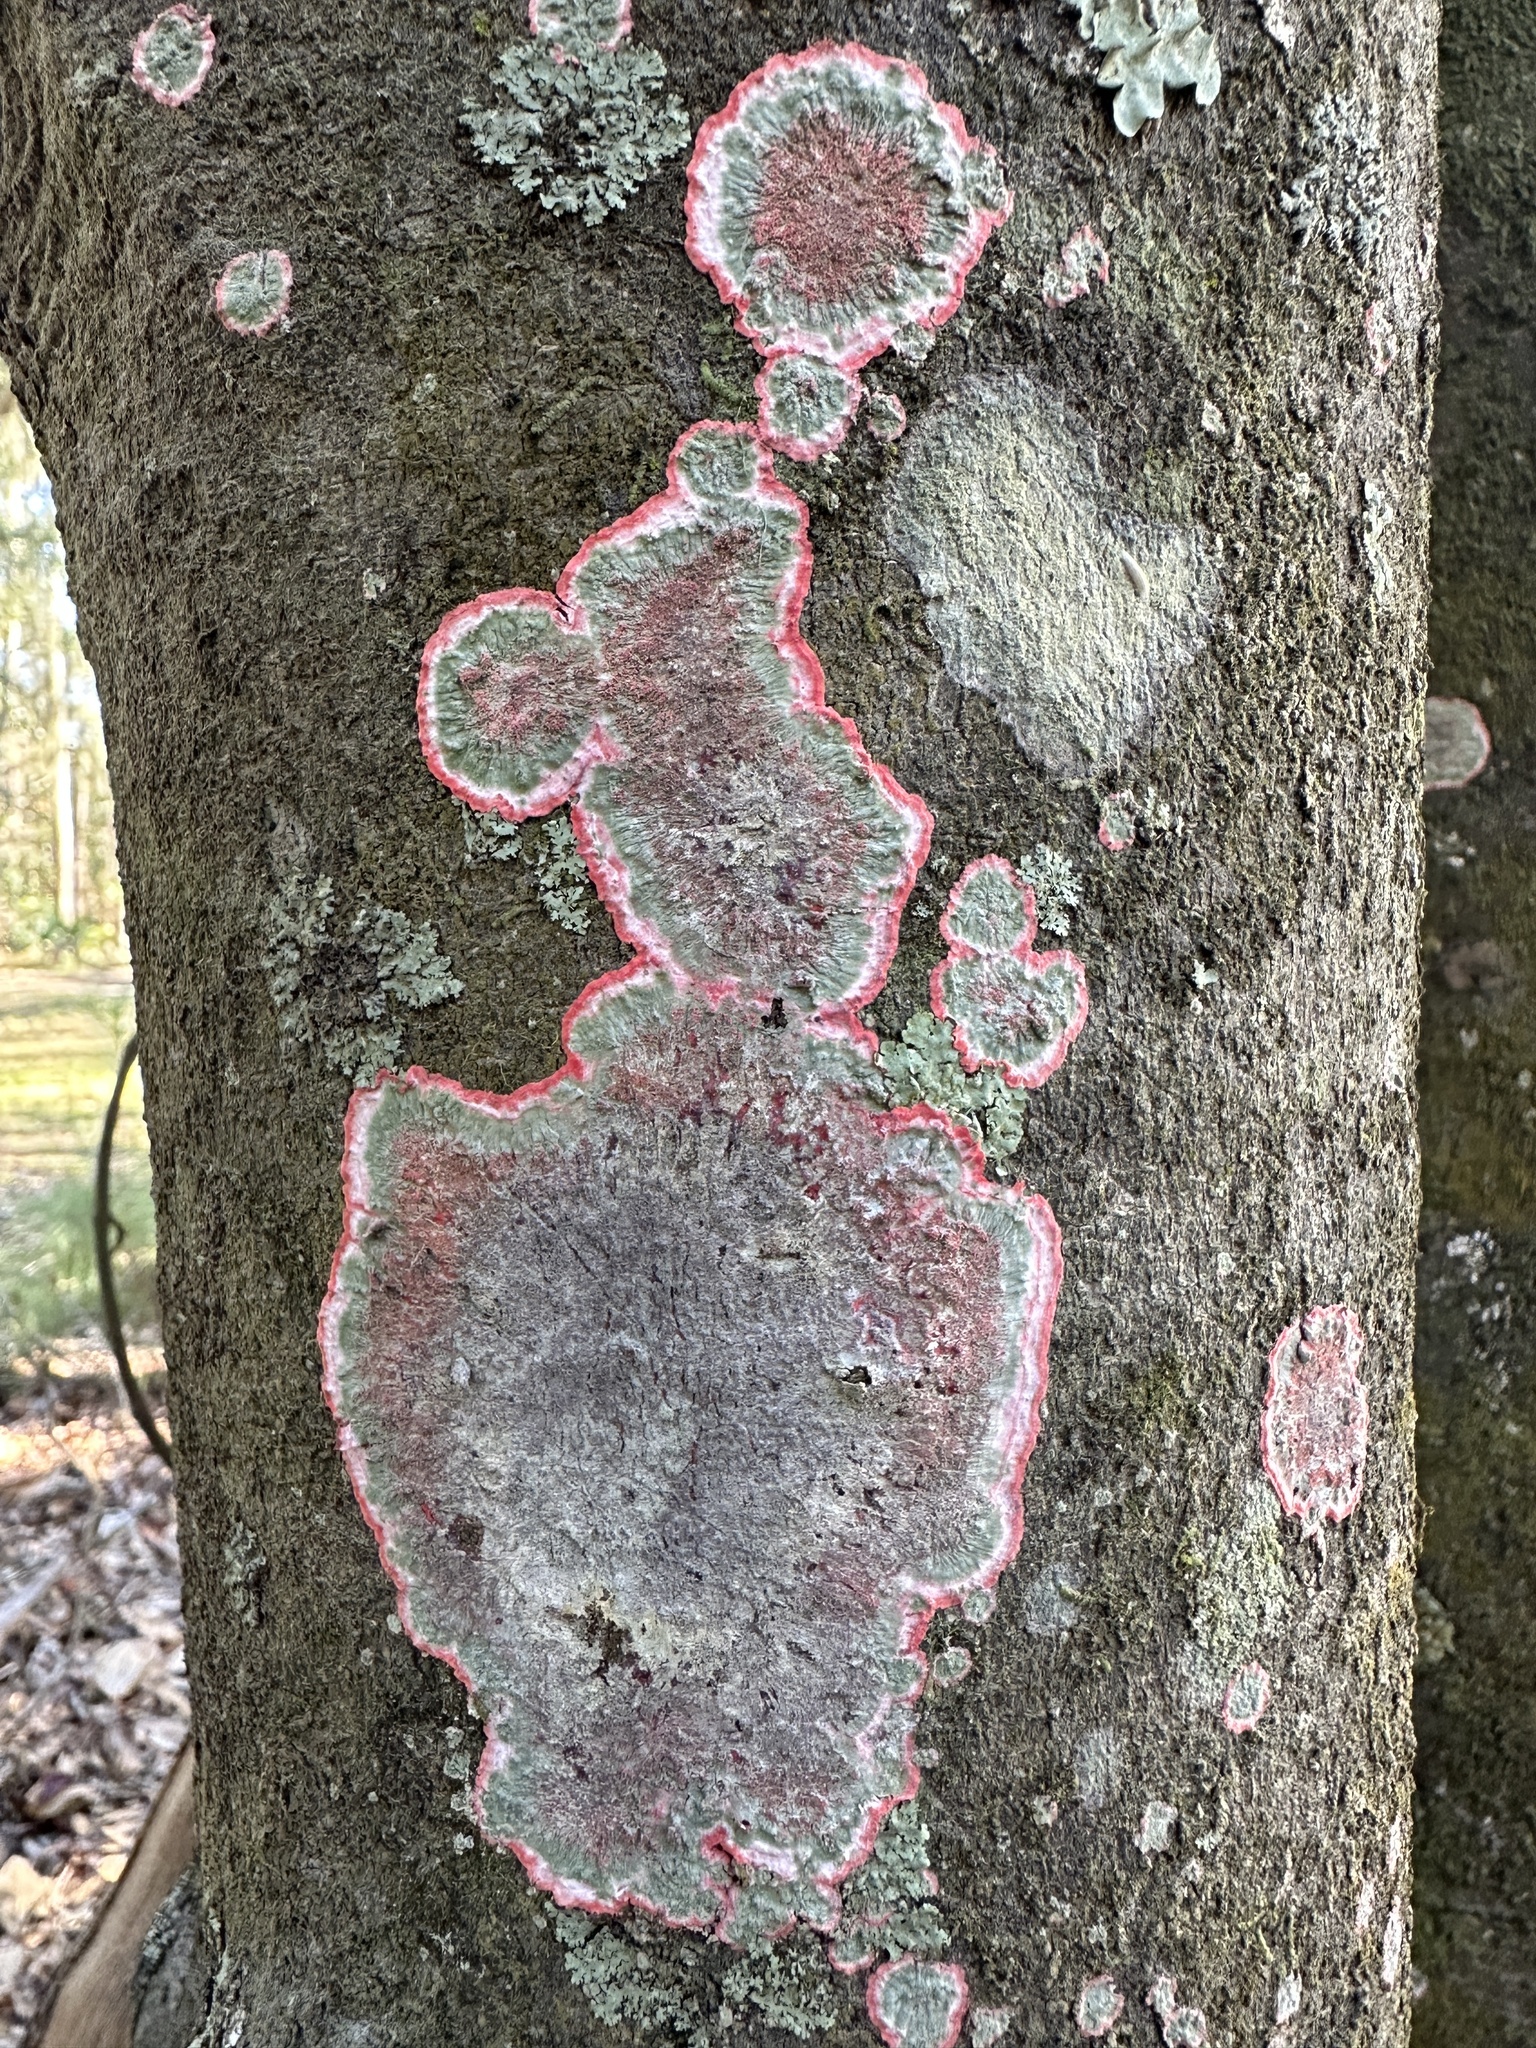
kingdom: Fungi
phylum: Ascomycota
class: Arthoniomycetes
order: Arthoniales
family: Arthoniaceae
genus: Herpothallon
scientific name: Herpothallon rubrocinctum
